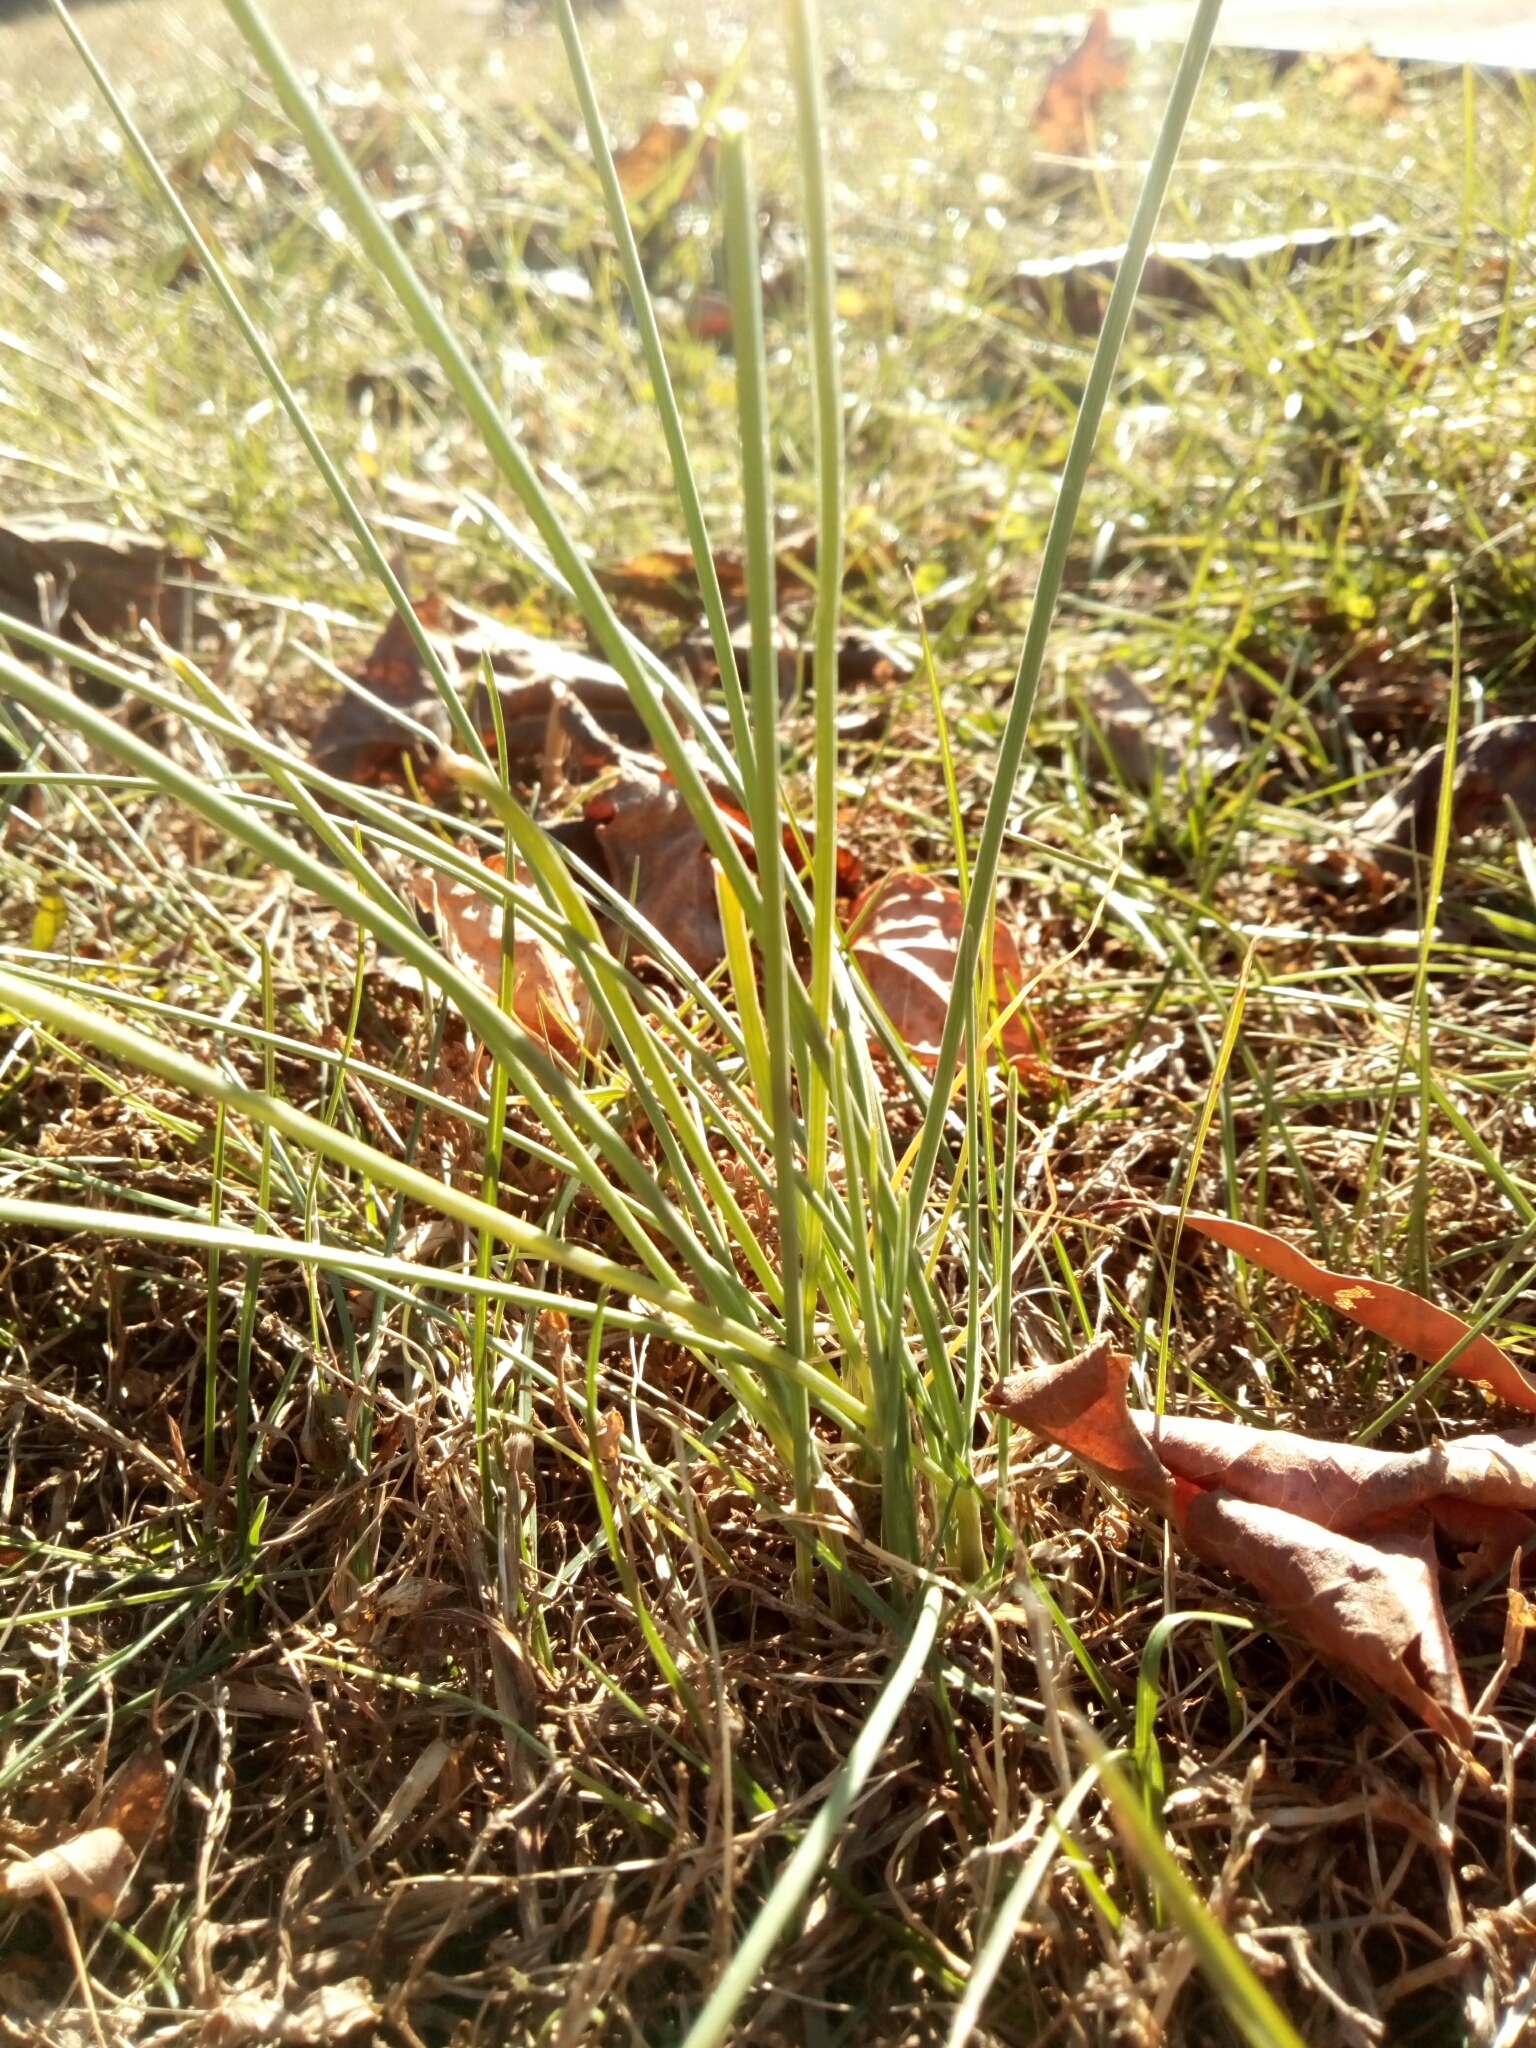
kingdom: Plantae
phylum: Tracheophyta
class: Liliopsida
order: Asparagales
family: Amaryllidaceae
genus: Allium
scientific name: Allium vineale
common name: Crow garlic
